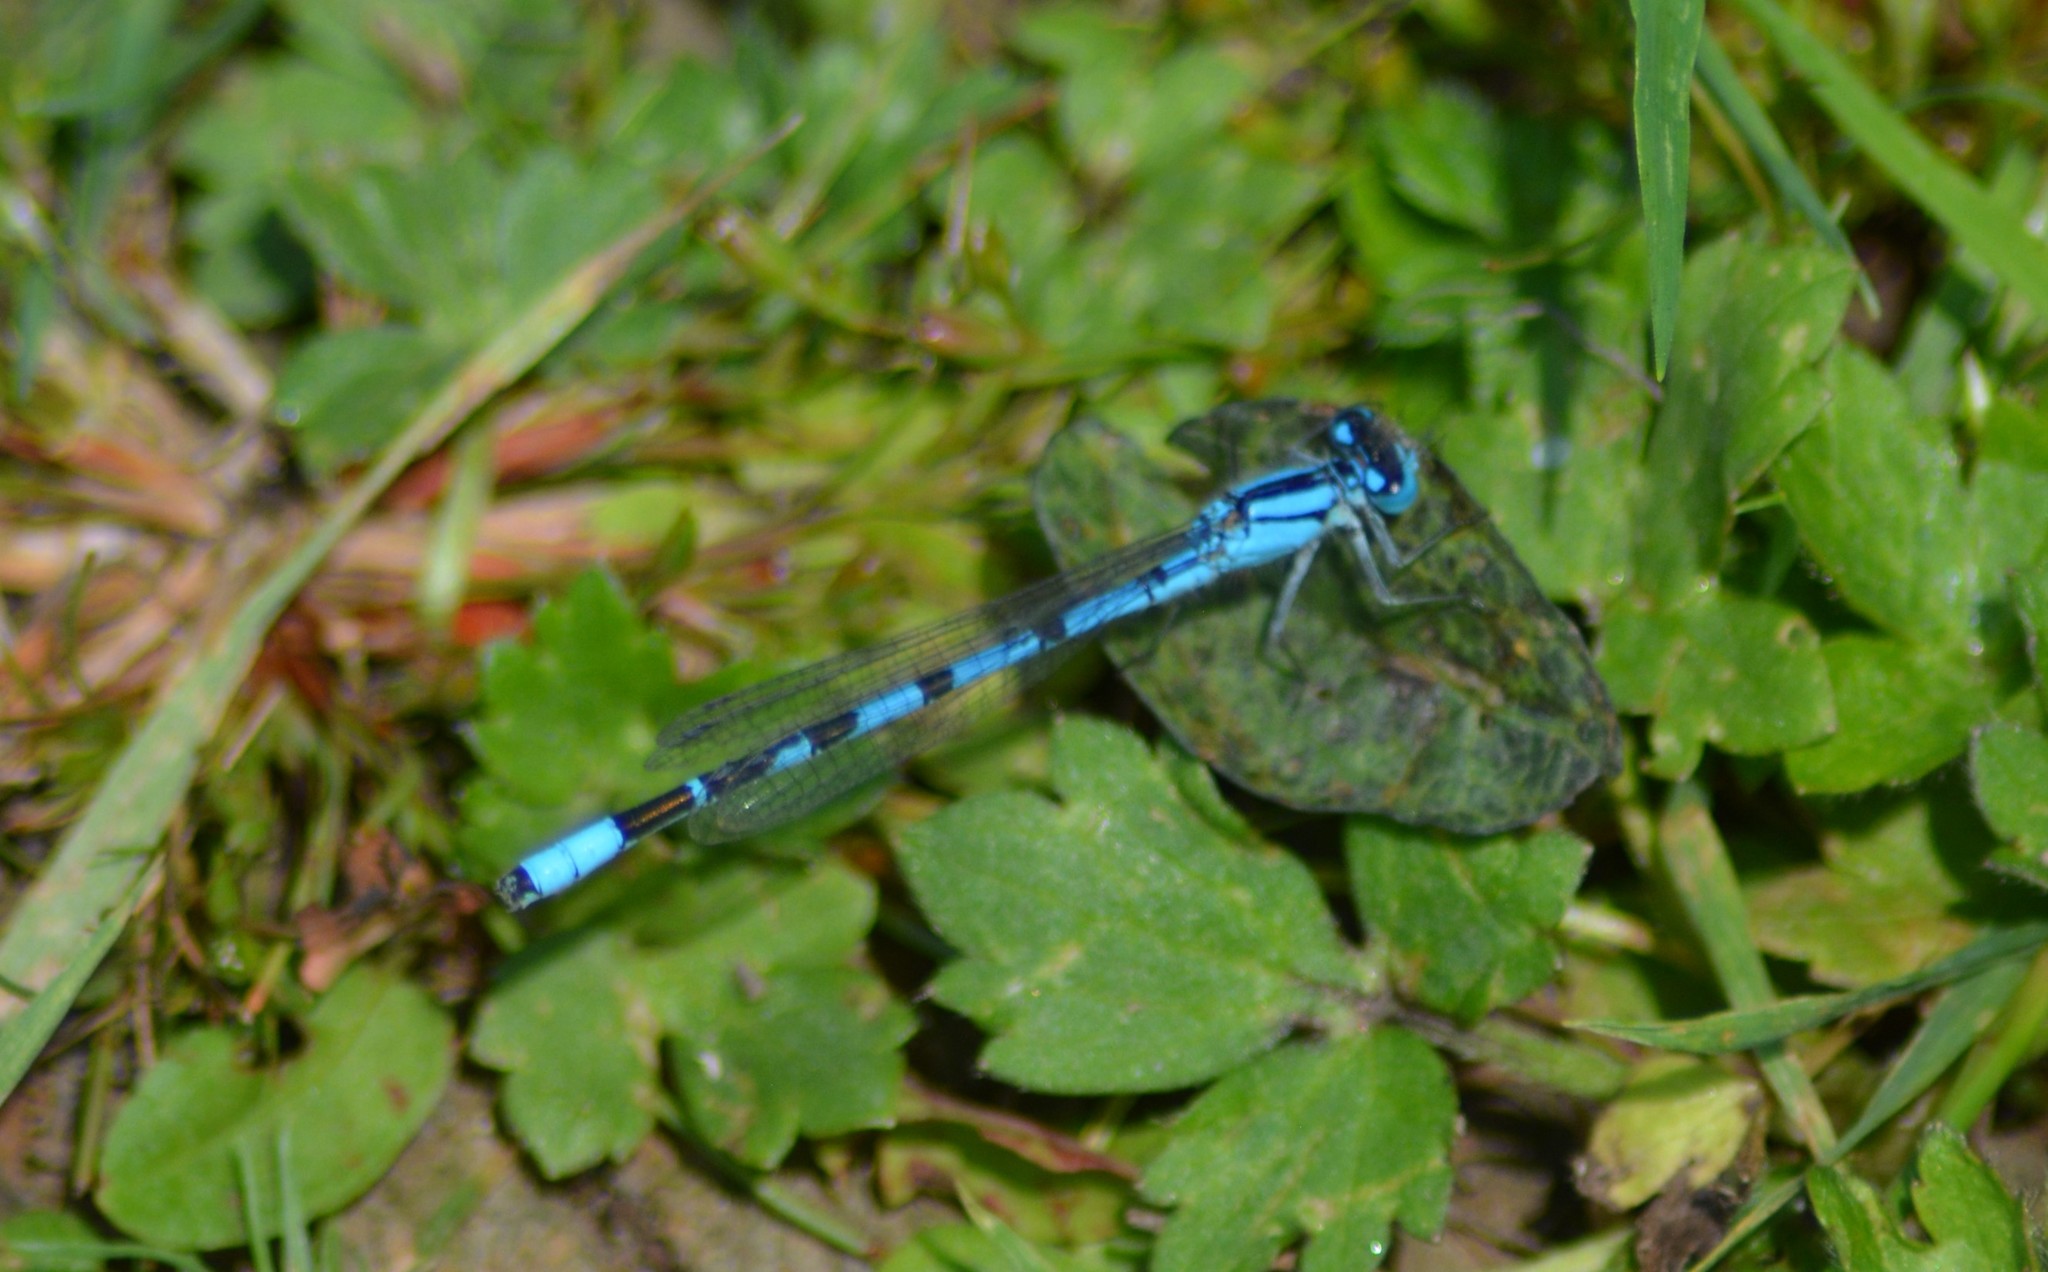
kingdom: Animalia
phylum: Arthropoda
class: Insecta
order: Odonata
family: Coenagrionidae
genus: Enallagma
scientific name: Enallagma cyathigerum
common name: Common blue damselfly
